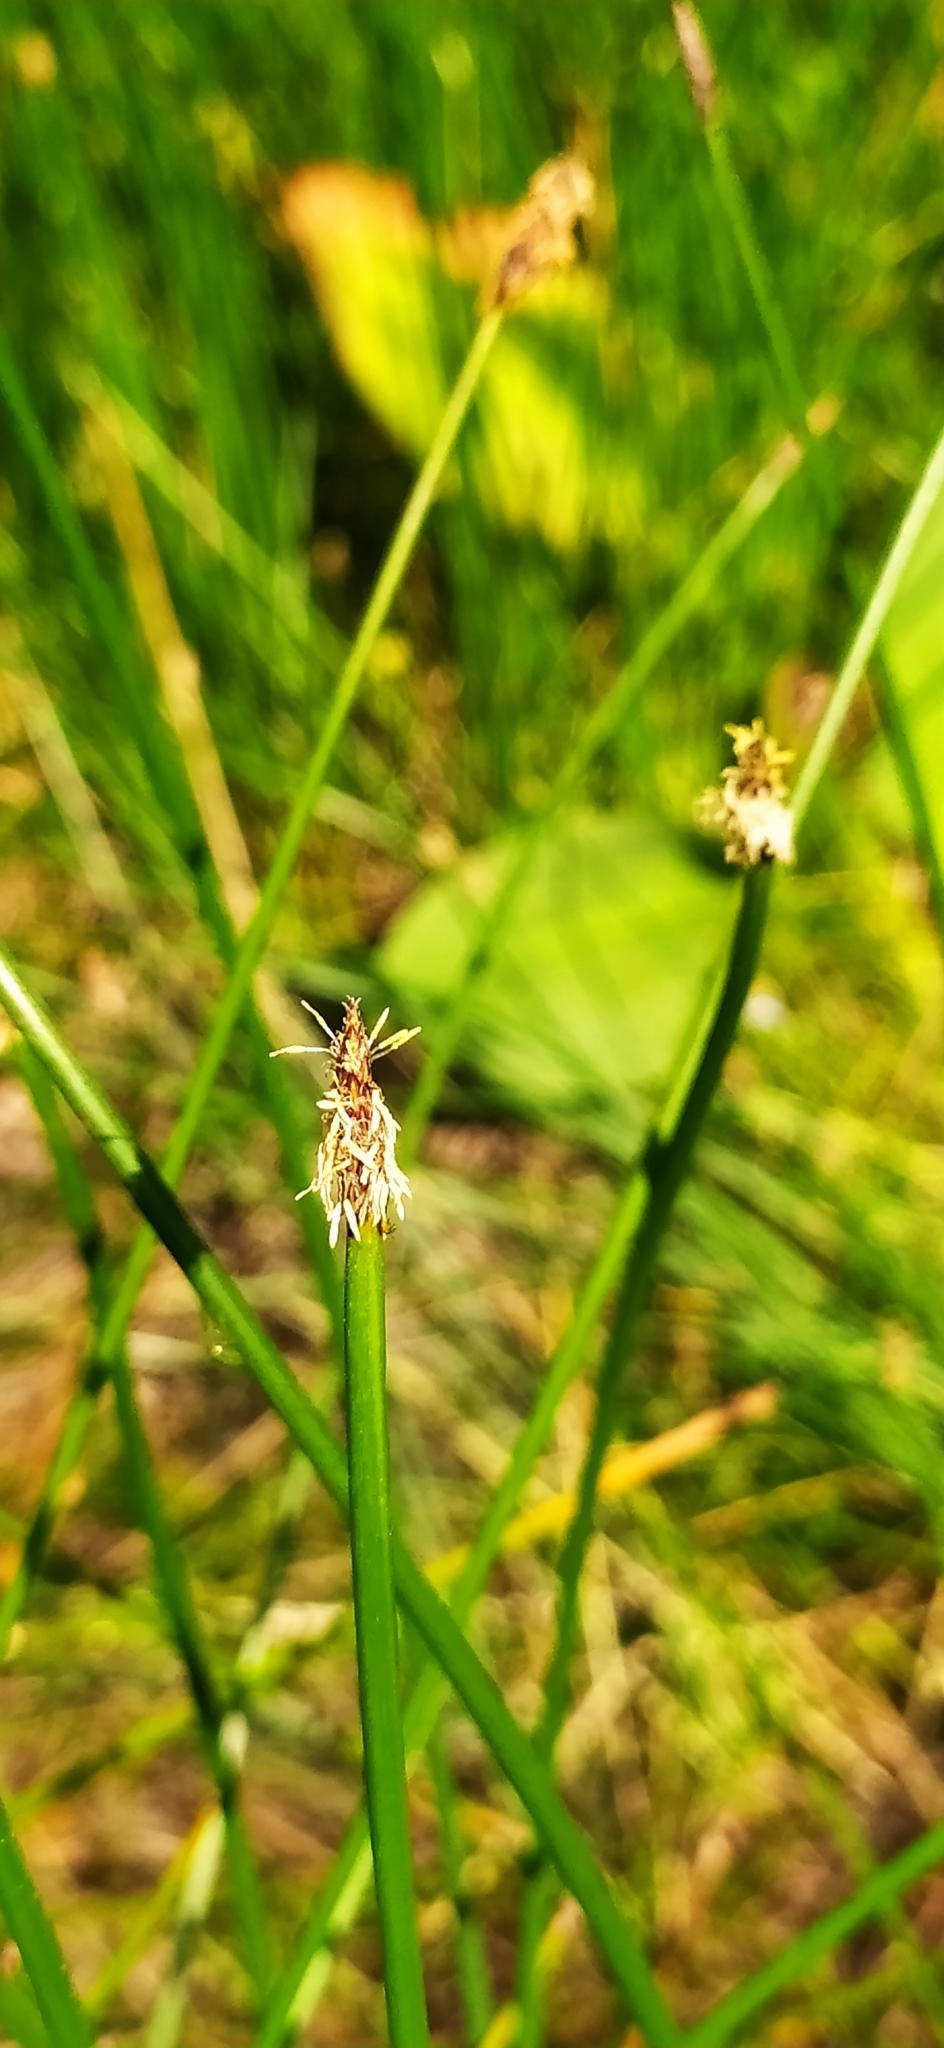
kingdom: Plantae
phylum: Tracheophyta
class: Liliopsida
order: Poales
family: Cyperaceae
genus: Eleocharis
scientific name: Eleocharis palustris
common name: Common spike-rush
